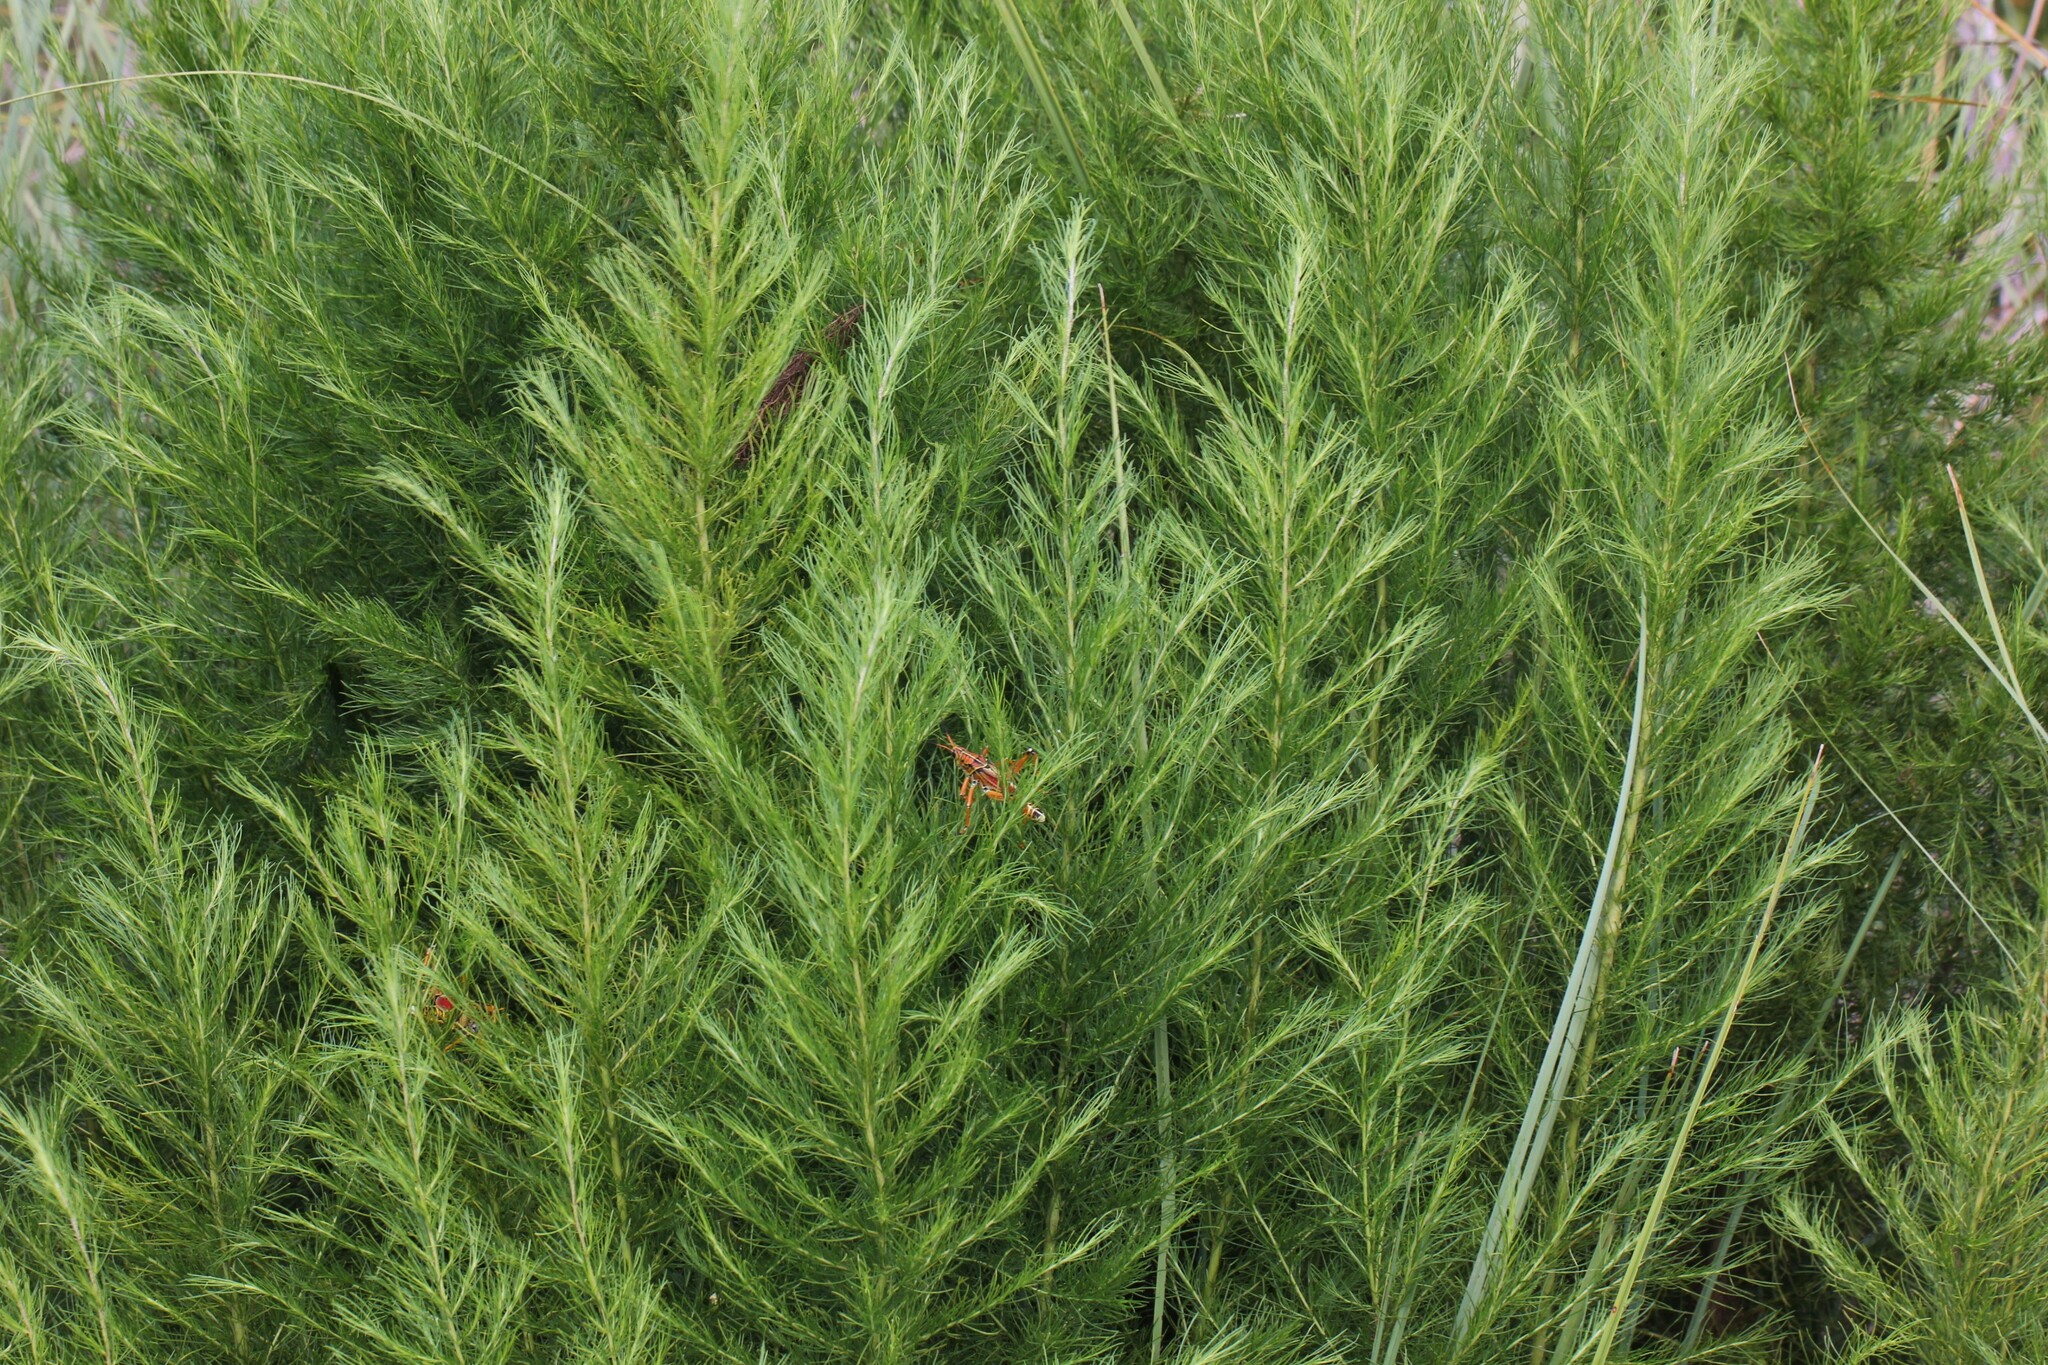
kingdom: Plantae
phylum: Tracheophyta
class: Magnoliopsida
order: Asterales
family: Asteraceae
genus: Eupatorium
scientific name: Eupatorium capillifolium
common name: Dog-fennel
